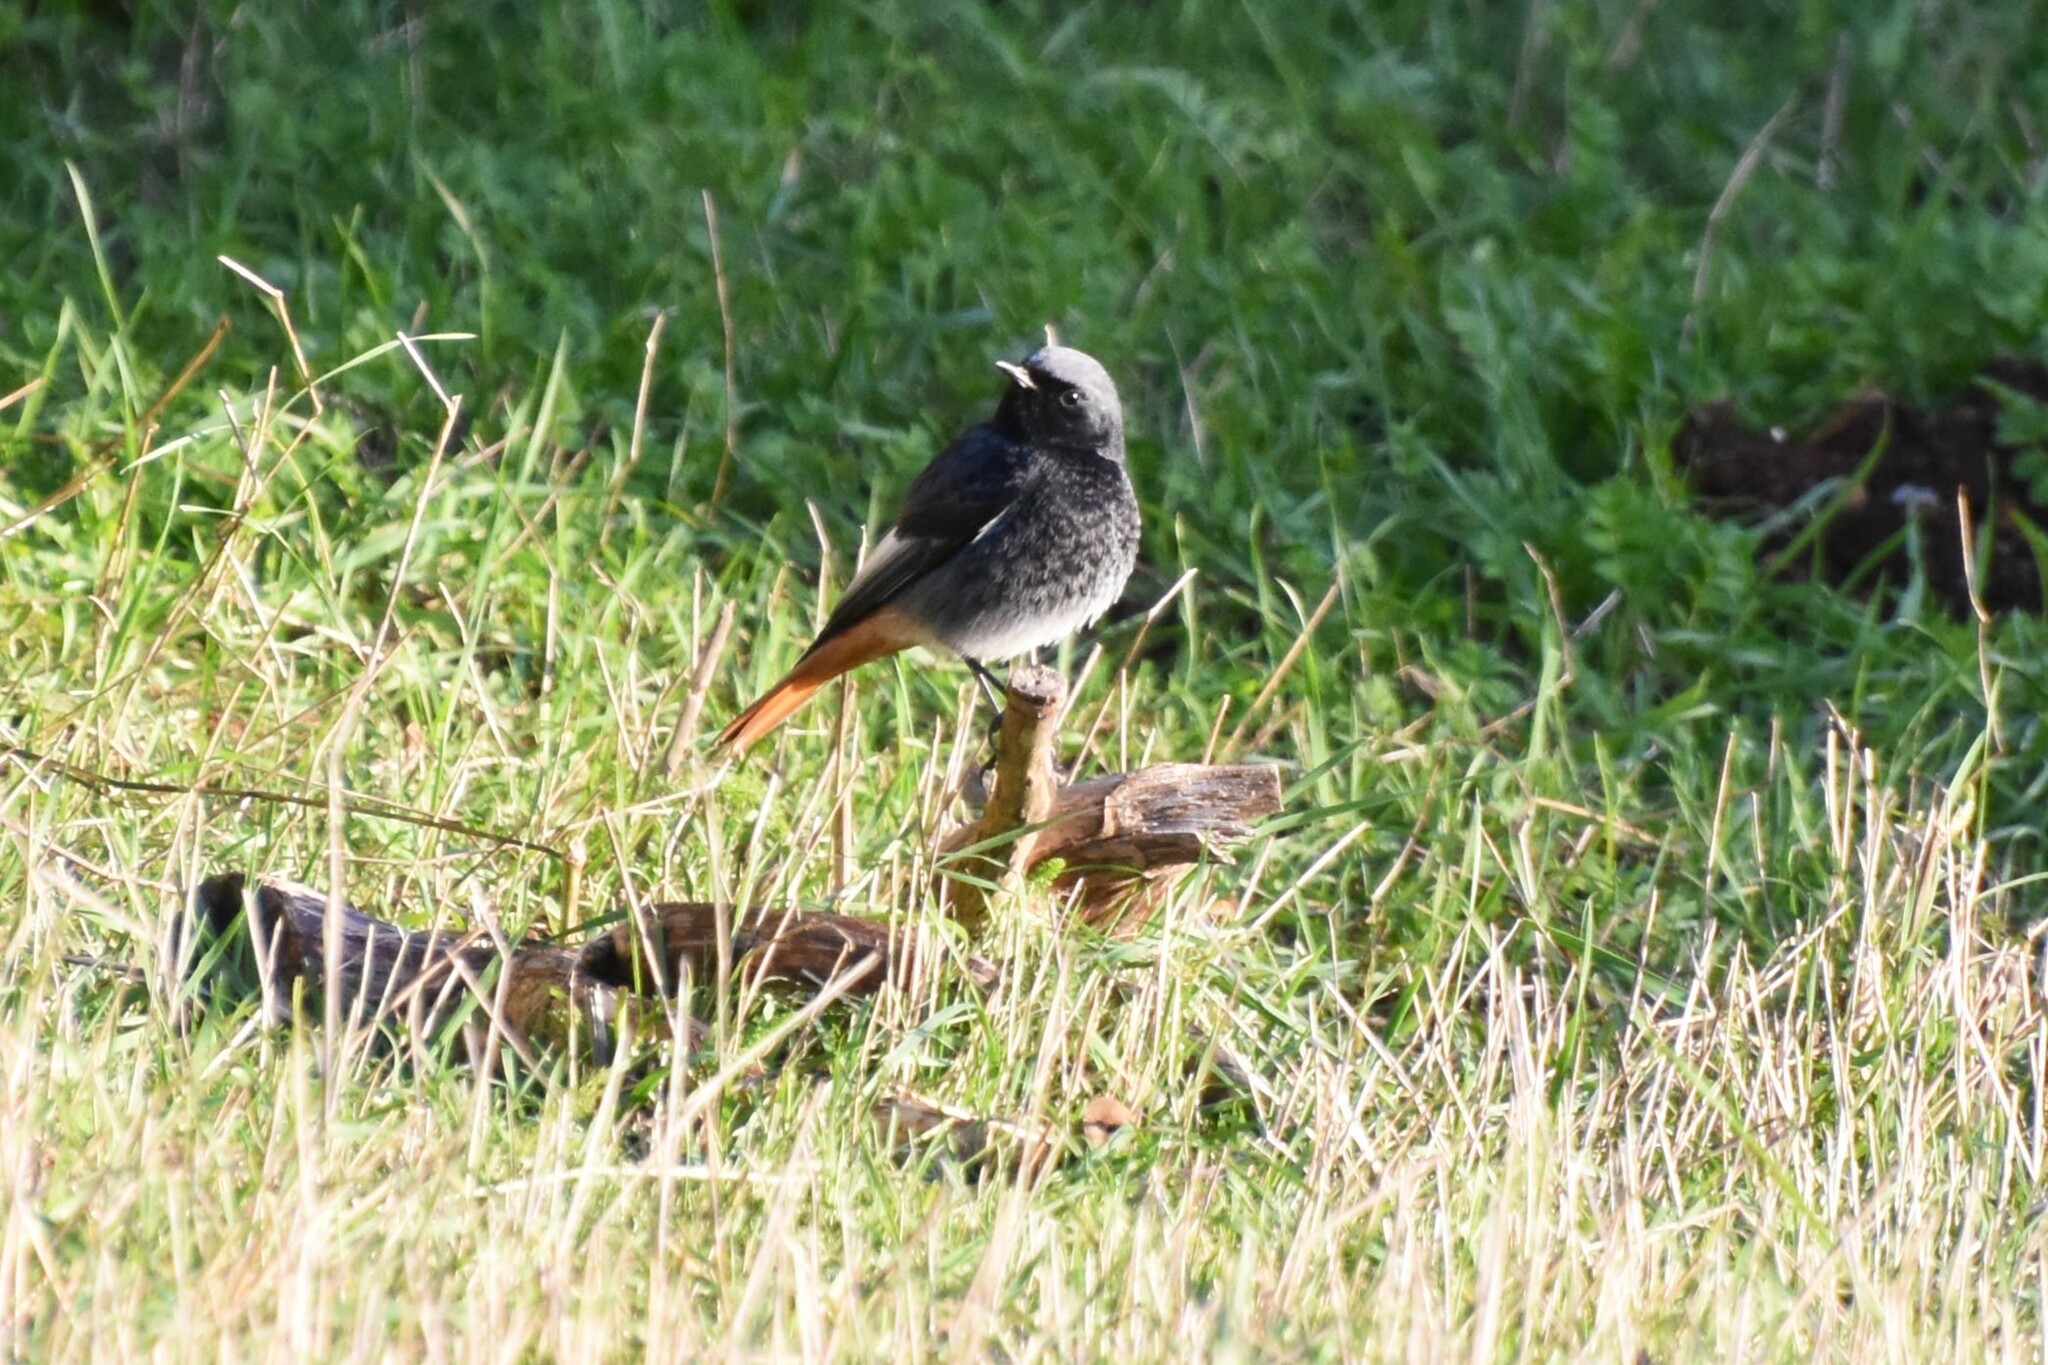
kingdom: Animalia
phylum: Chordata
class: Aves
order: Passeriformes
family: Muscicapidae
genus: Phoenicurus
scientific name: Phoenicurus ochruros
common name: Black redstart
